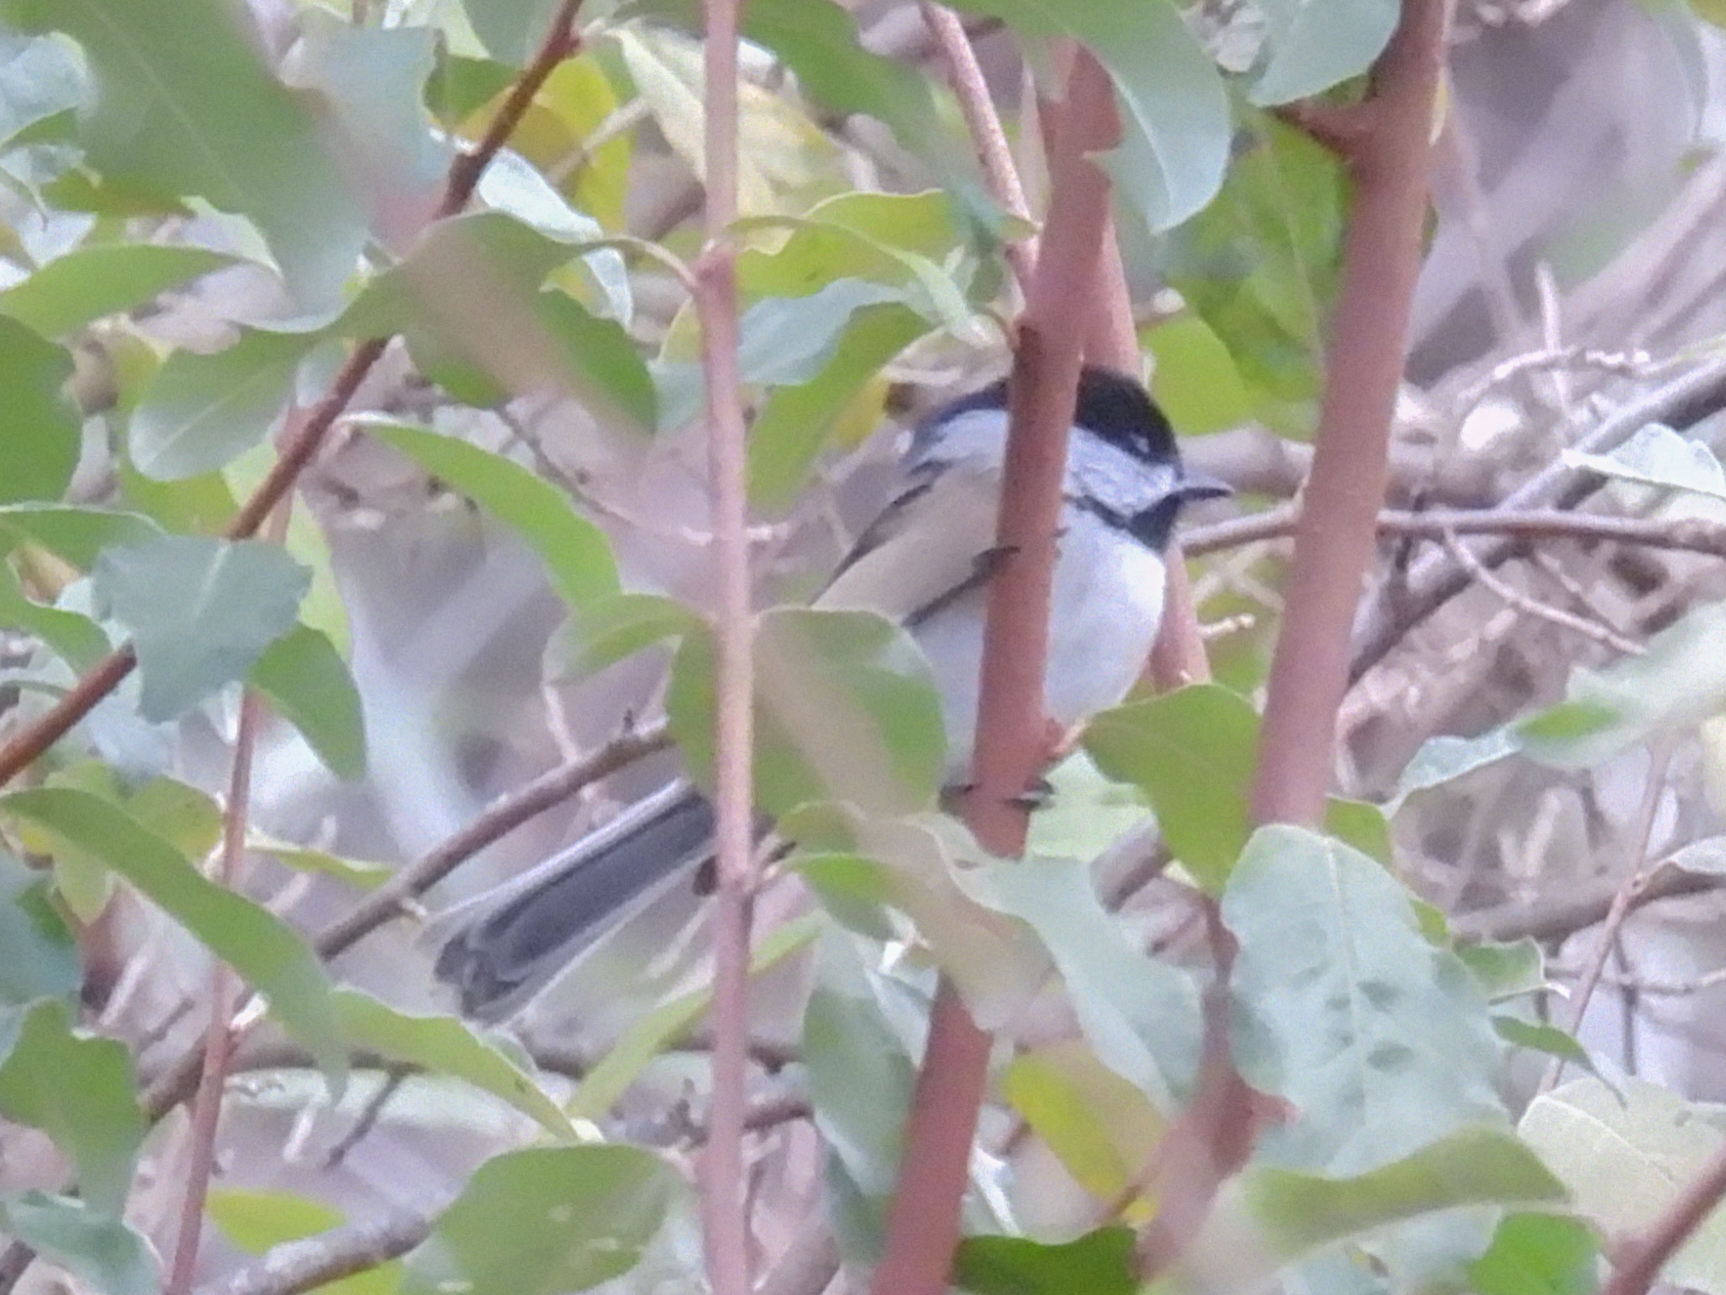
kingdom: Animalia
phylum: Chordata
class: Aves
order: Passeriformes
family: Paridae
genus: Poecile
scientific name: Poecile atricapillus
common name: Black-capped chickadee
